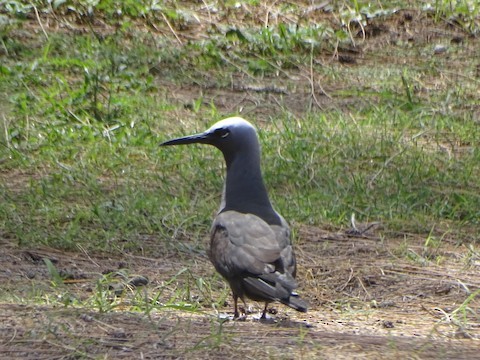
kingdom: Animalia
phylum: Chordata
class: Aves
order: Charadriiformes
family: Laridae
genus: Anous
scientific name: Anous minutus
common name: Black noddy
